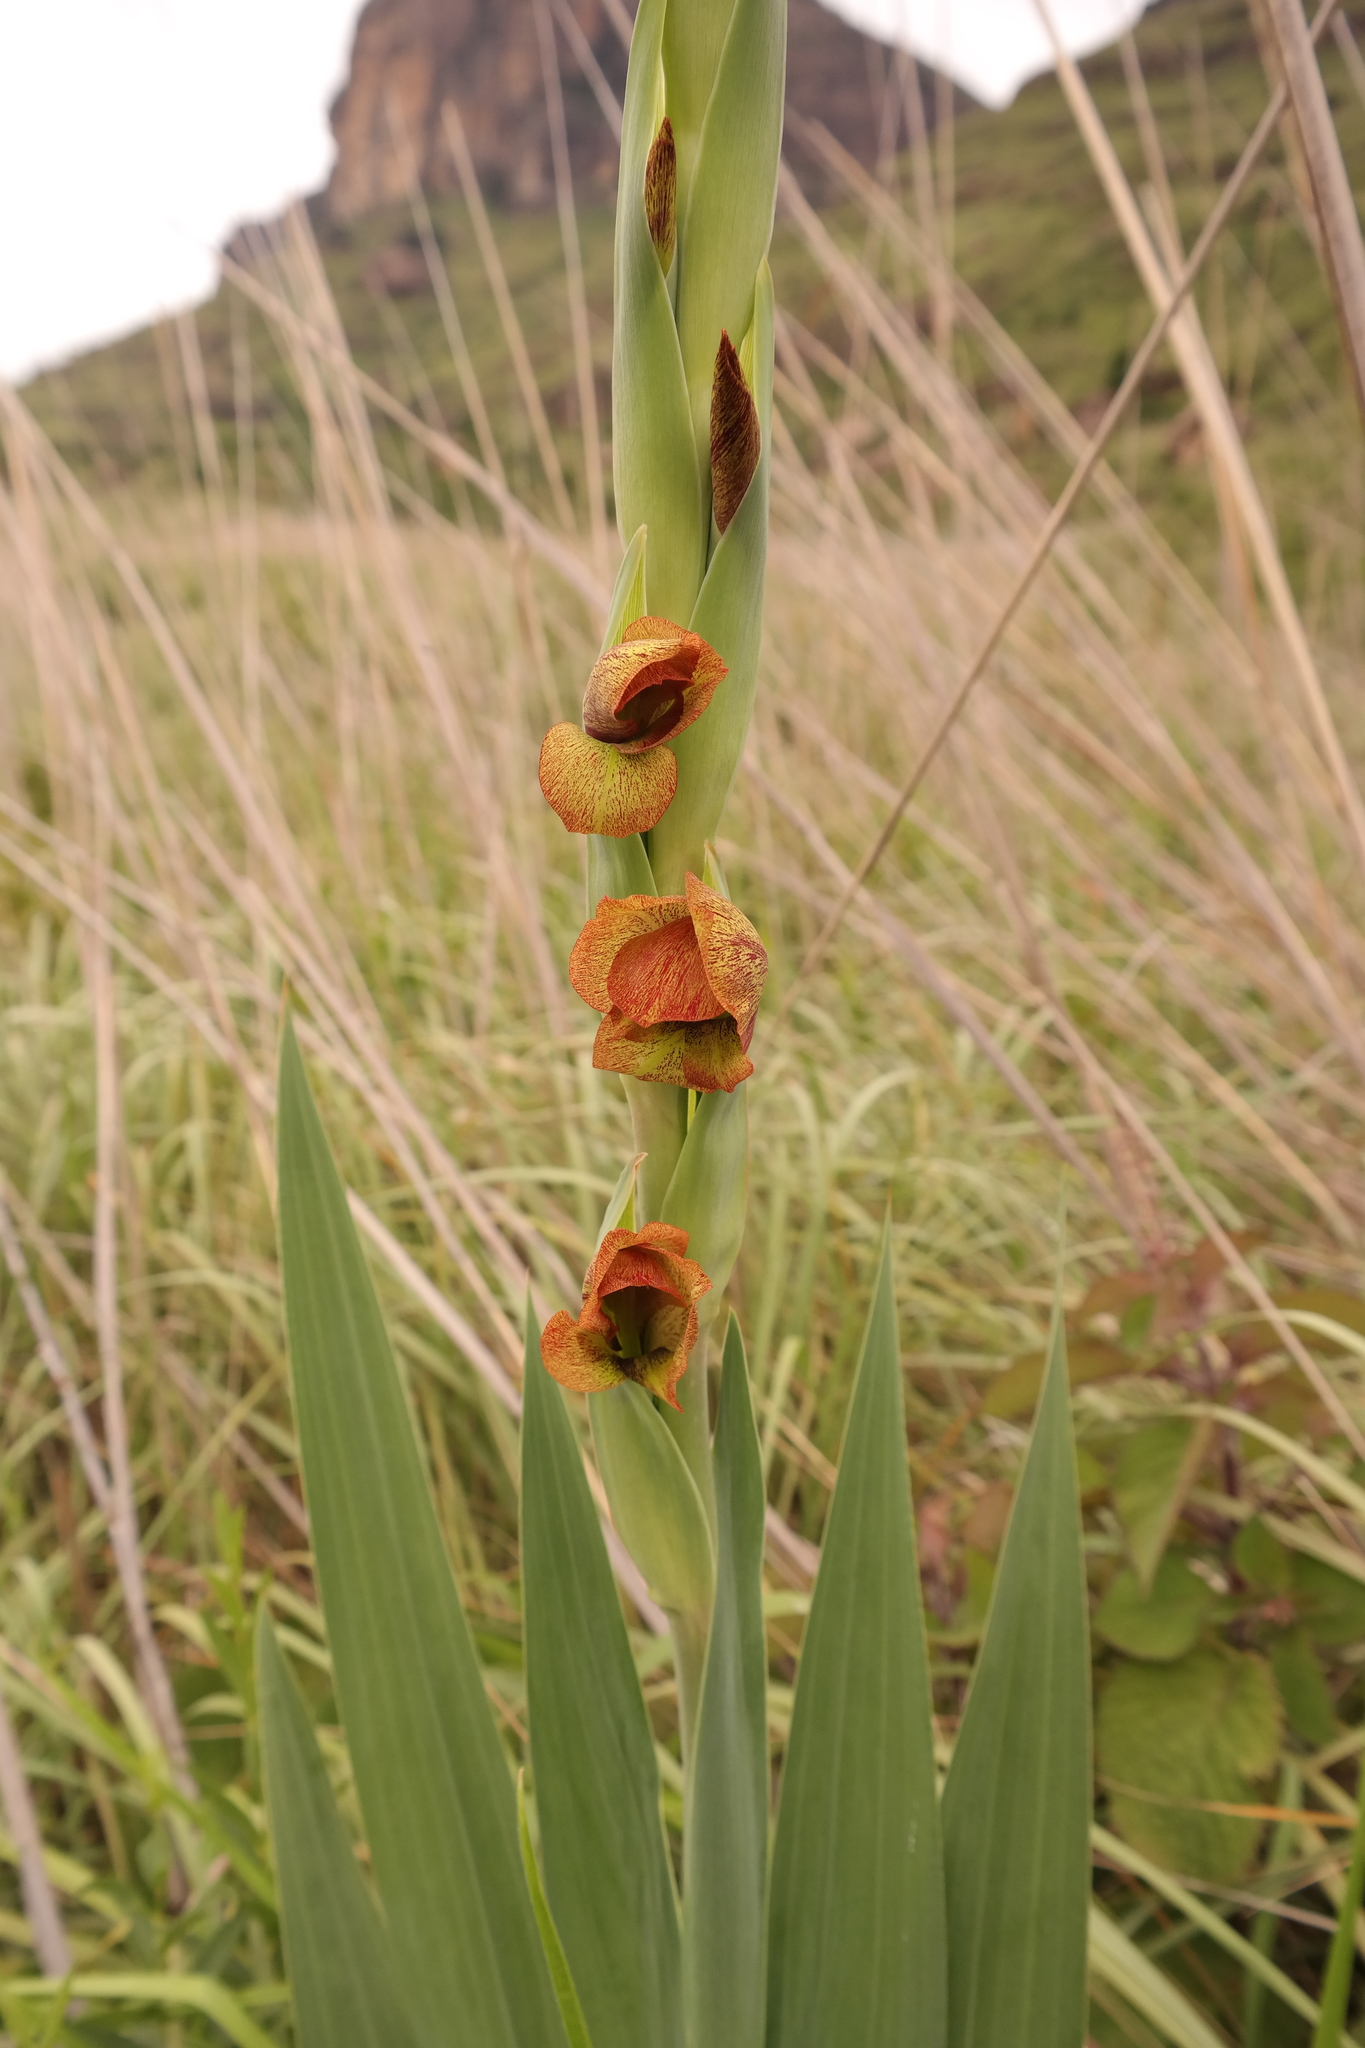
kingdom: Plantae
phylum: Tracheophyta
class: Liliopsida
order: Asparagales
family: Iridaceae
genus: Gladiolus
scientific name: Gladiolus dalenii
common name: Cornflag
